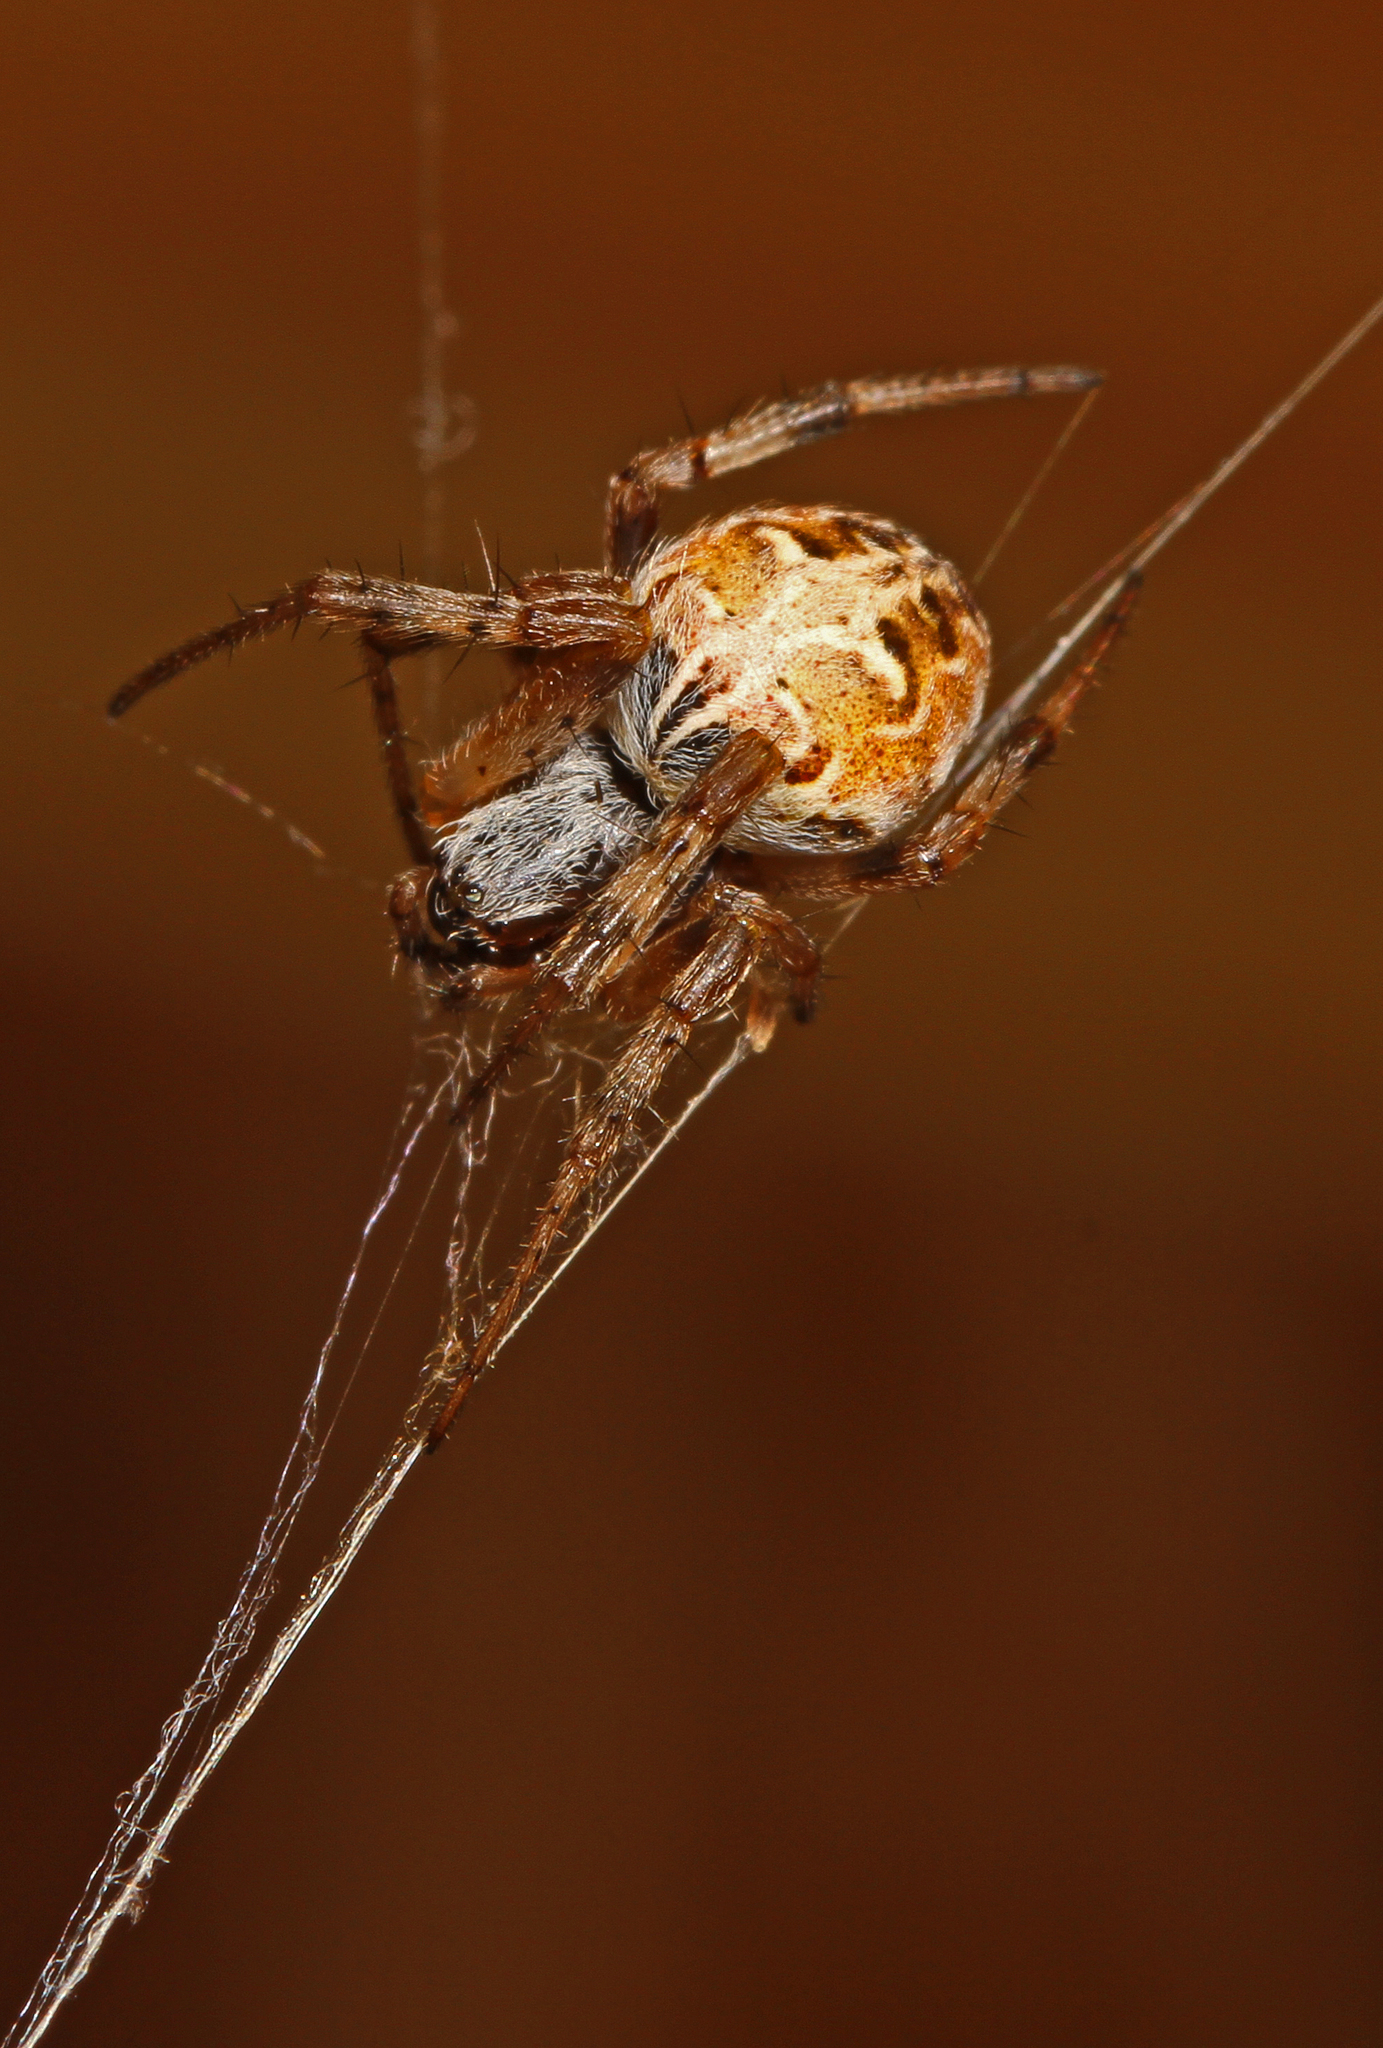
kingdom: Animalia
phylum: Arthropoda
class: Arachnida
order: Araneae
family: Araneidae
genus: Metepeira
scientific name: Metepeira labyrinthea
